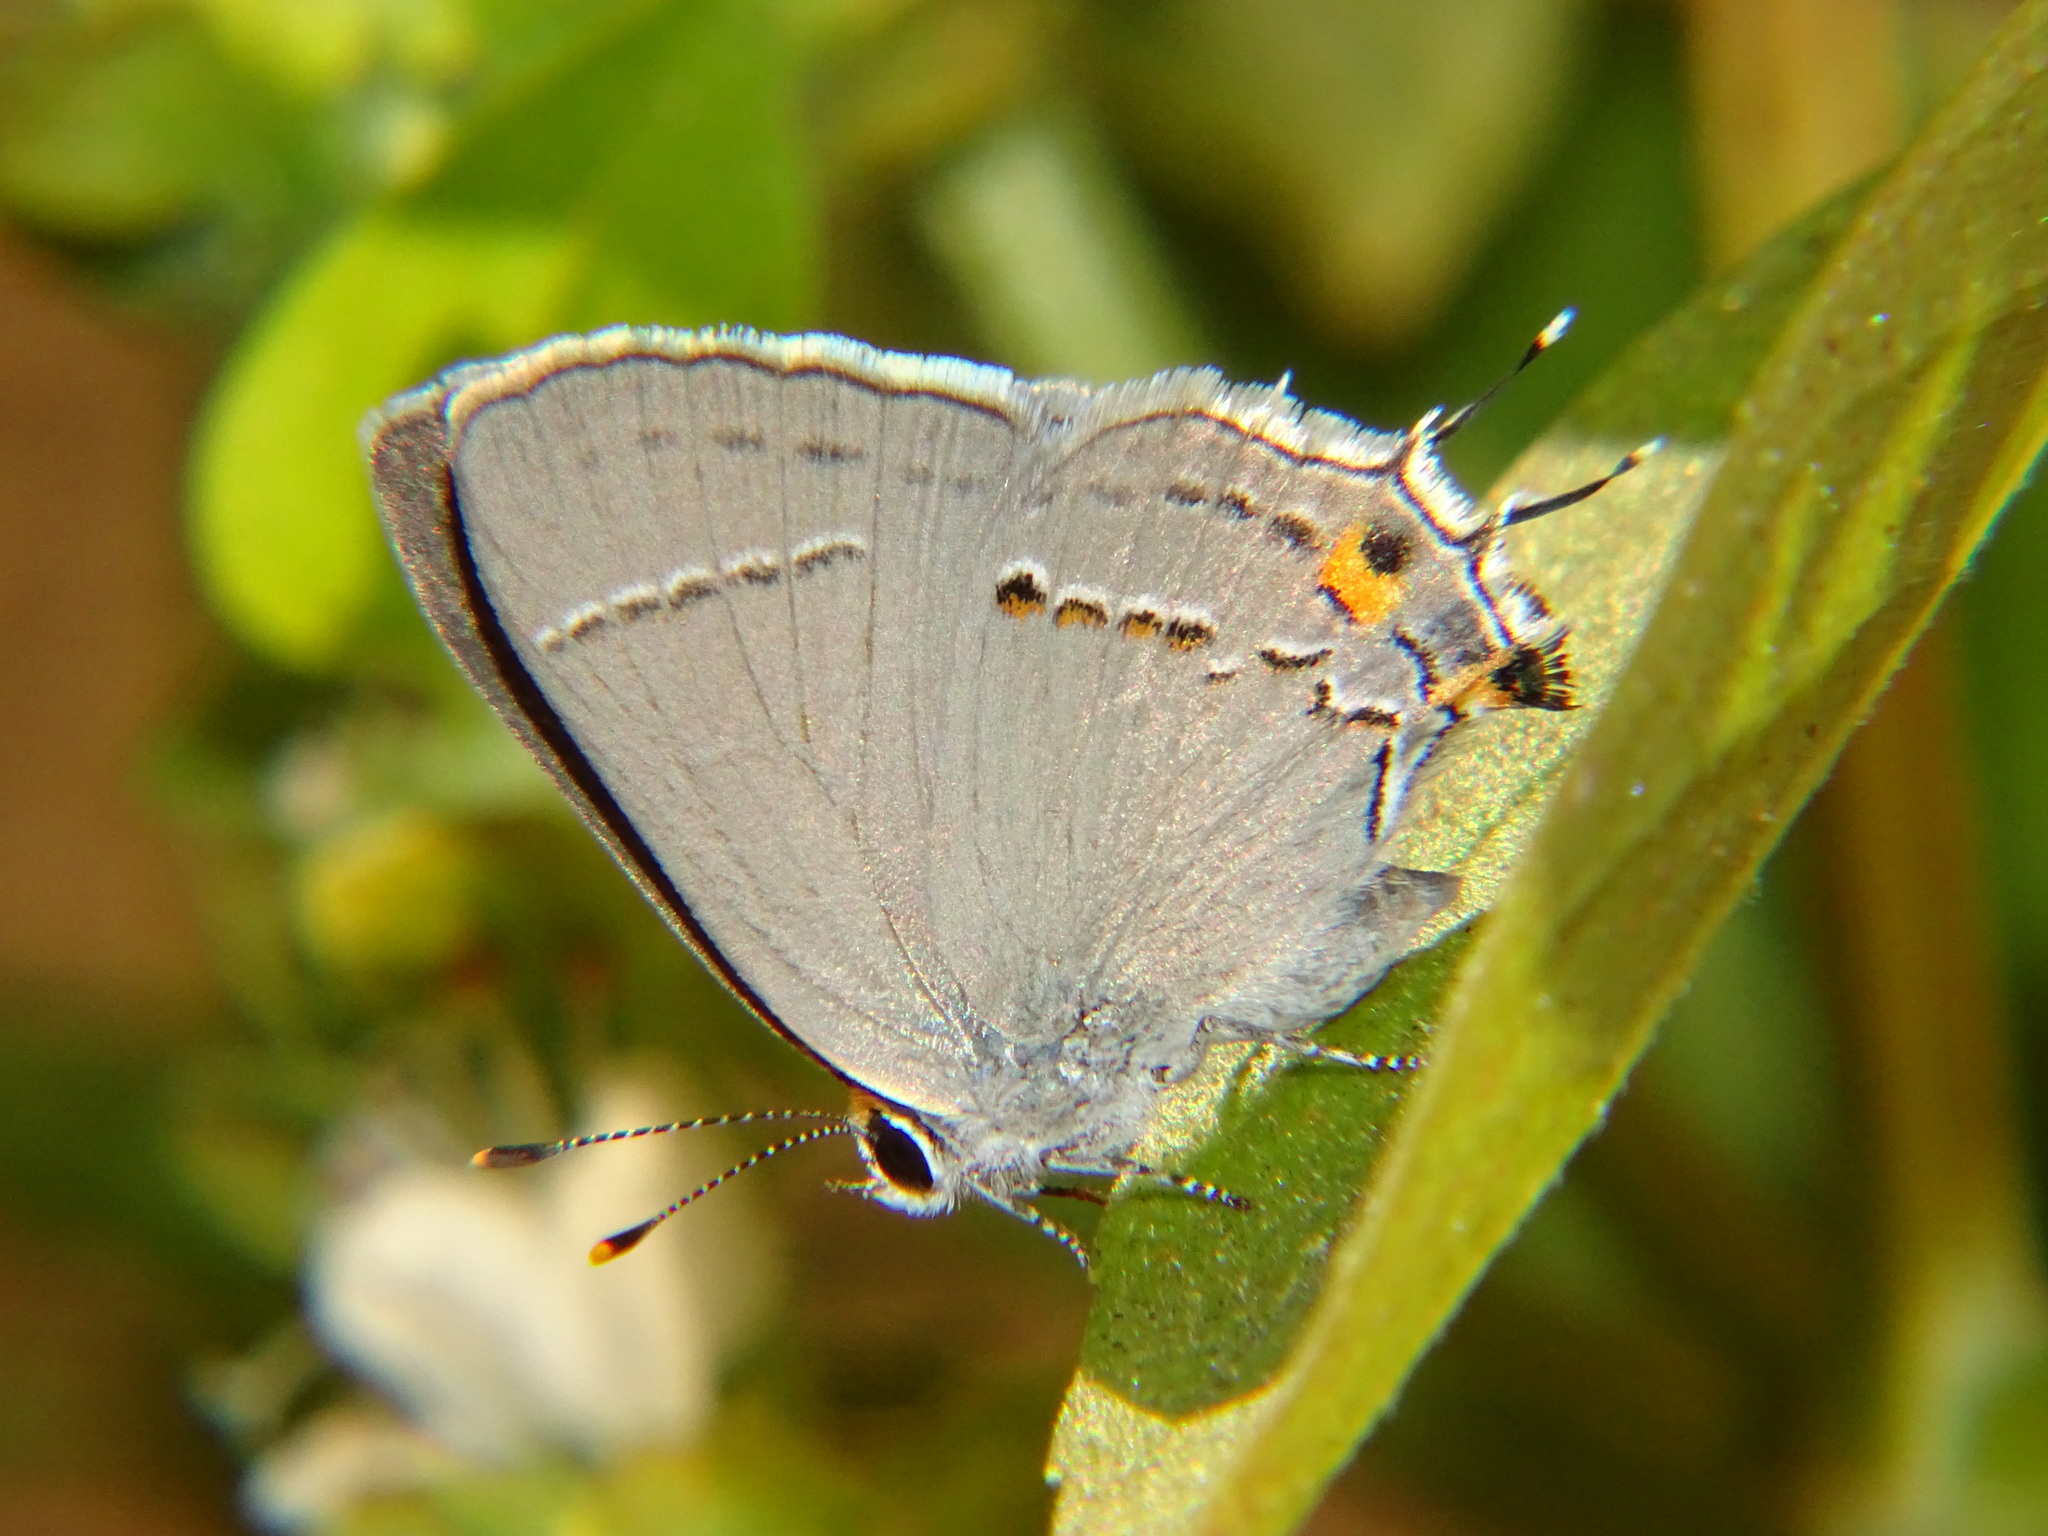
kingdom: Animalia
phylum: Arthropoda
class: Insecta
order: Lepidoptera
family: Lycaenidae
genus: Strymon
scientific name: Strymon melinus
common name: Gray hairstreak
